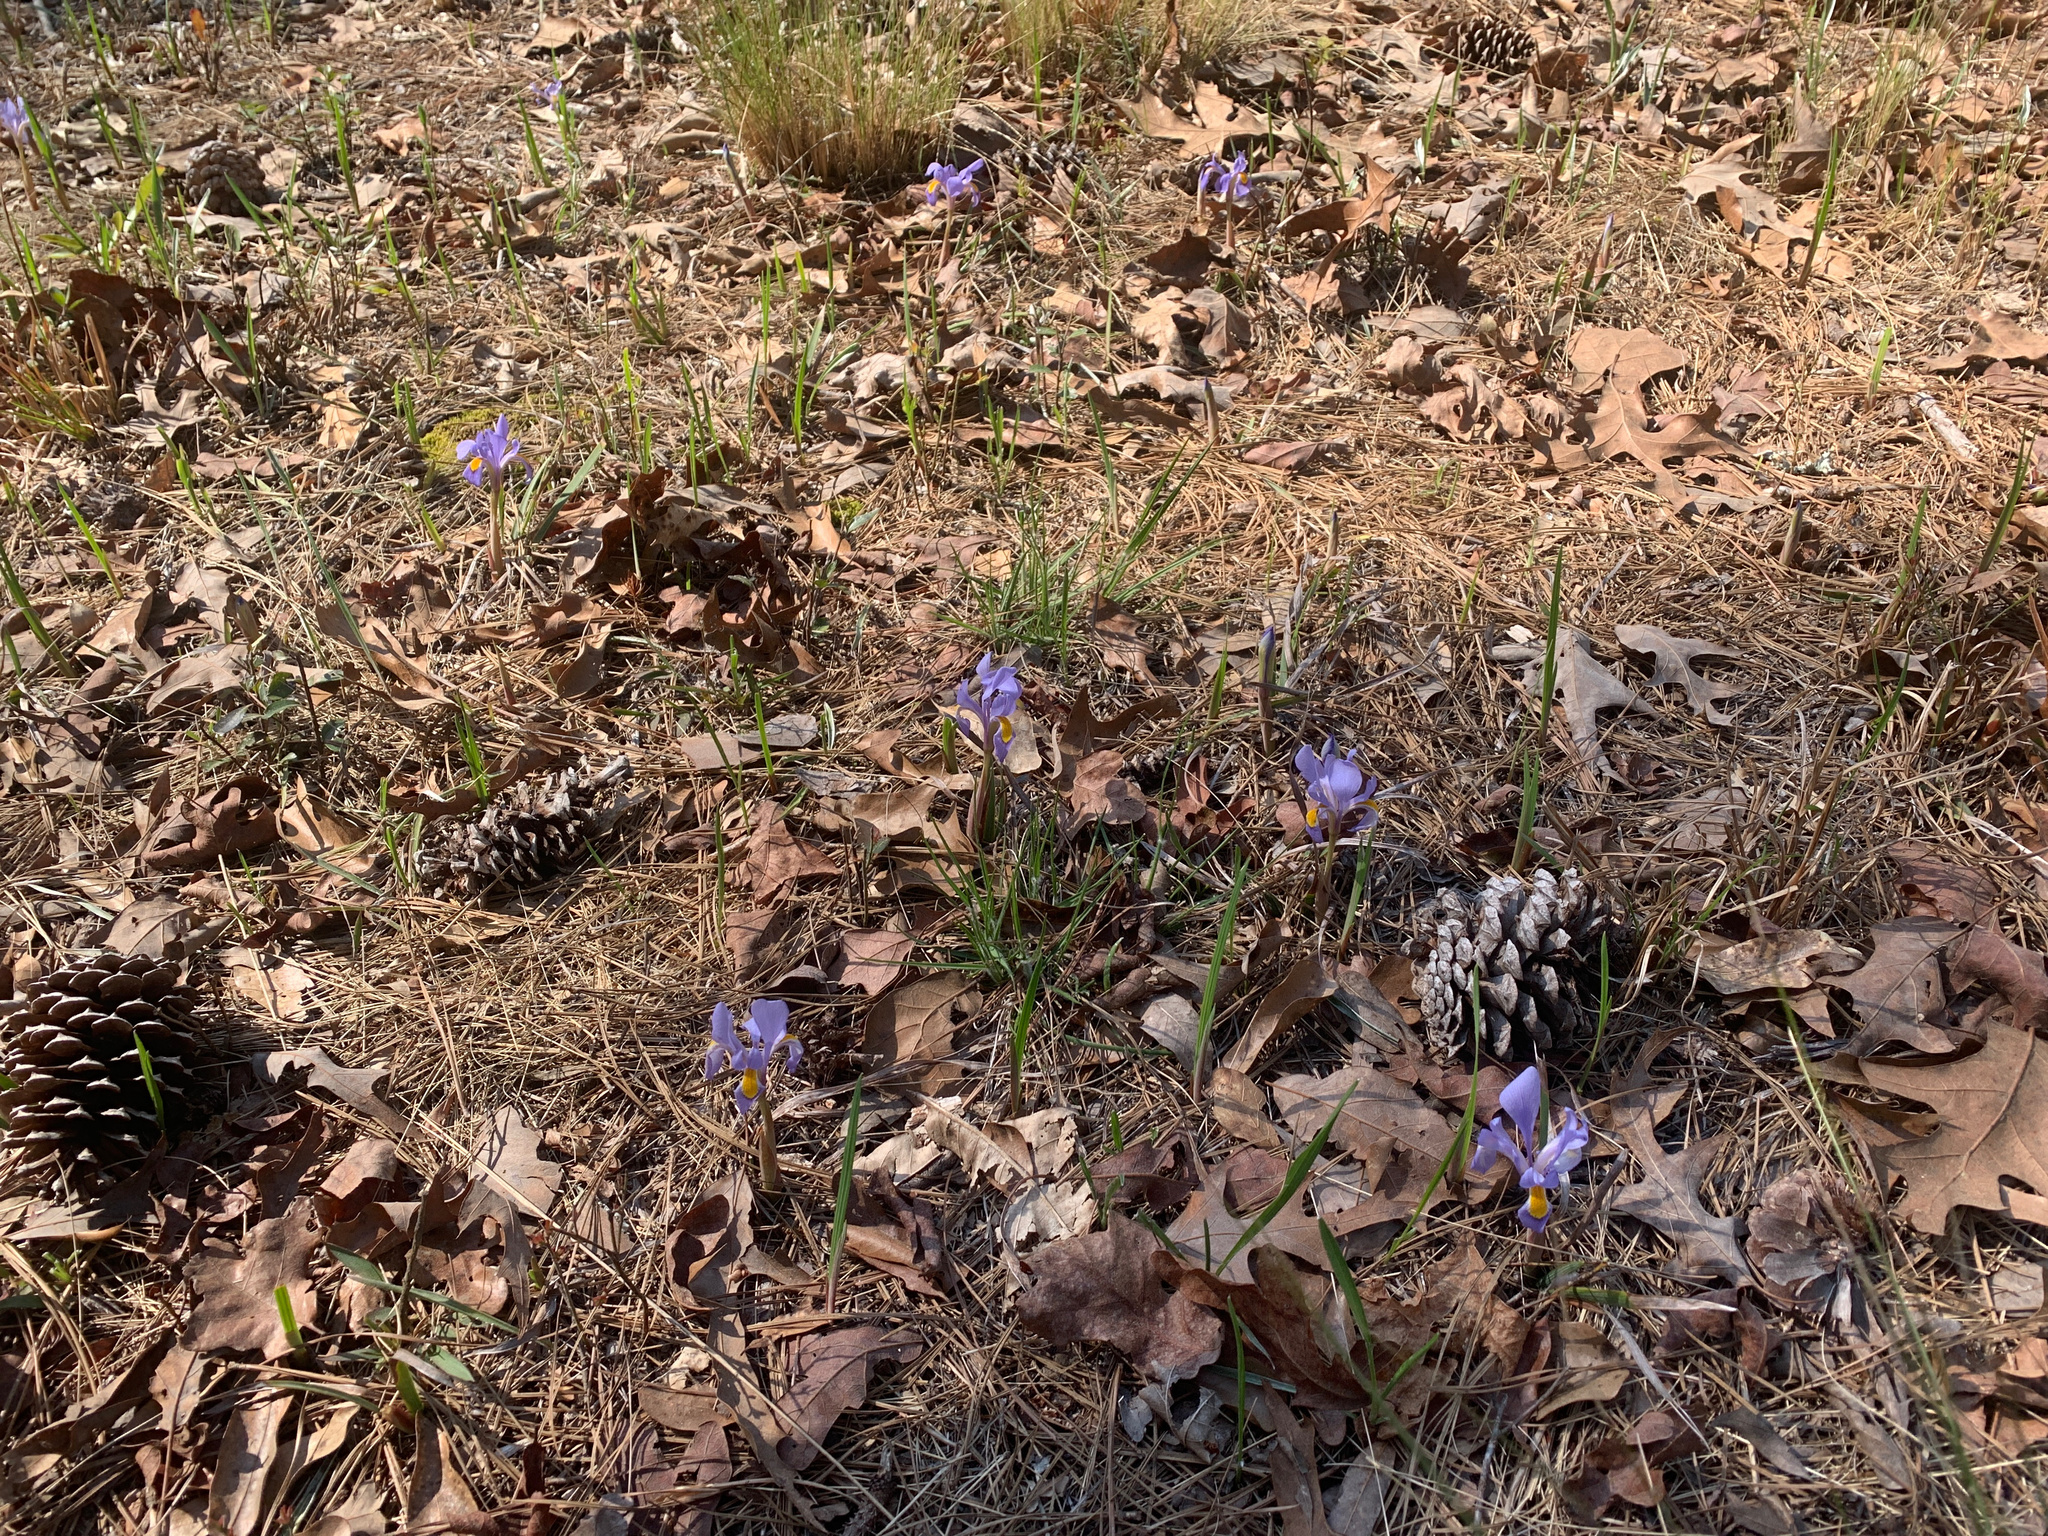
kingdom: Plantae
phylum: Tracheophyta
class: Liliopsida
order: Asparagales
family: Iridaceae
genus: Iris
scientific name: Iris verna
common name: Dwarf iris
